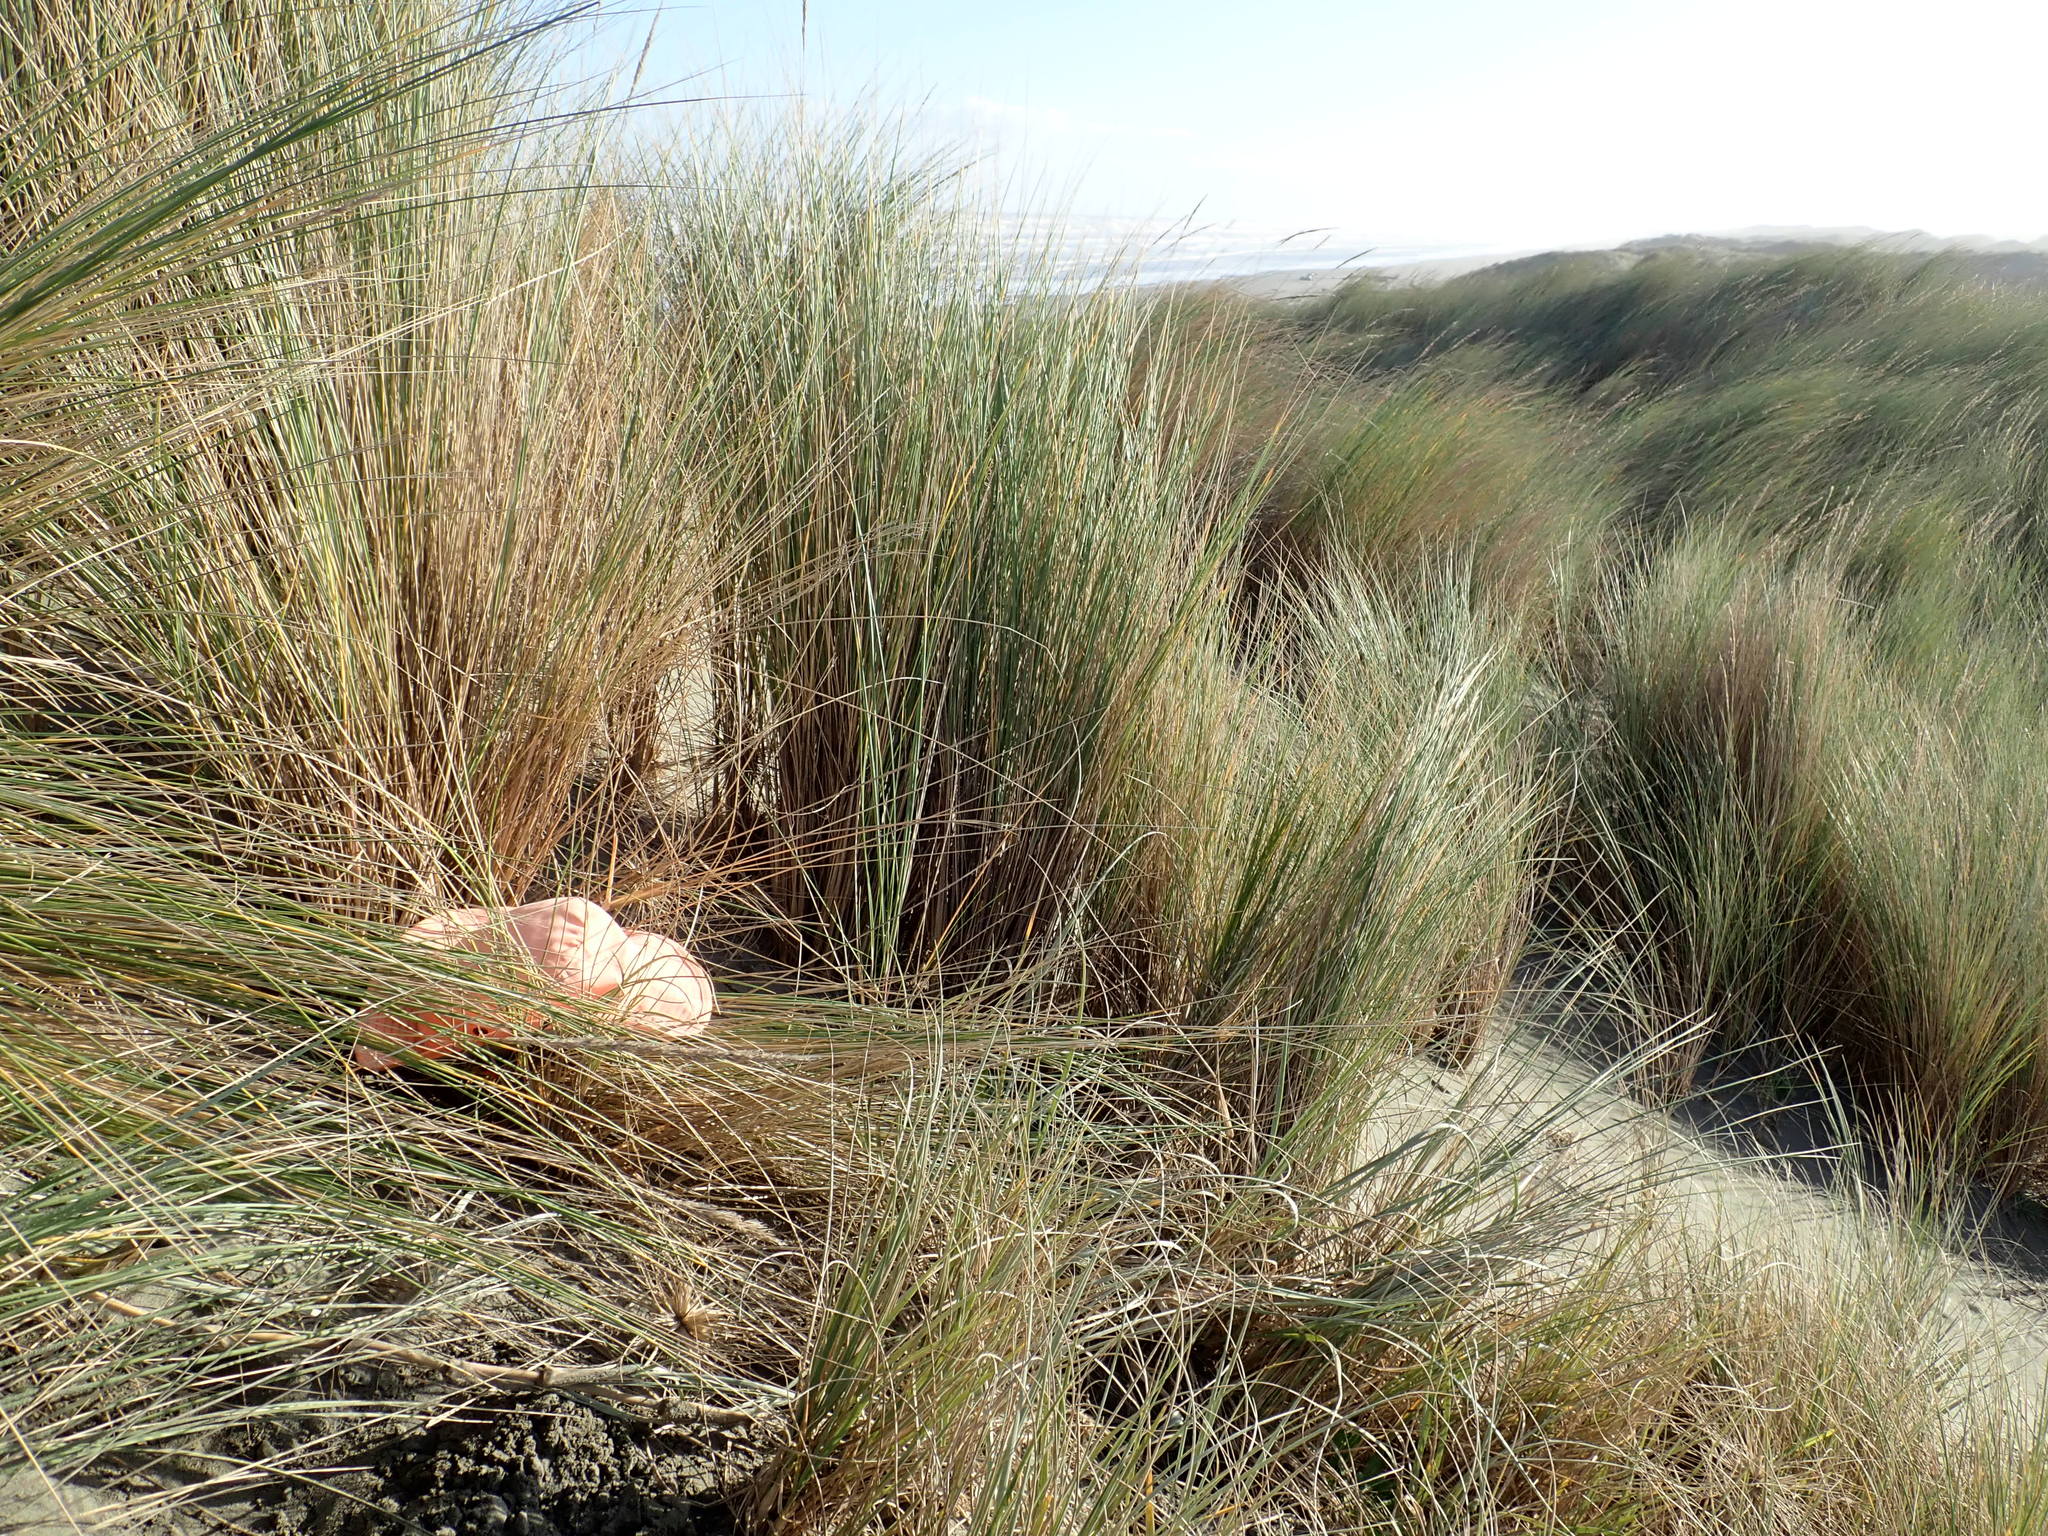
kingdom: Animalia
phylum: Arthropoda
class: Arachnida
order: Araneae
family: Mimetidae
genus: Australomimetus
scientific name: Australomimetus hartleyensis
